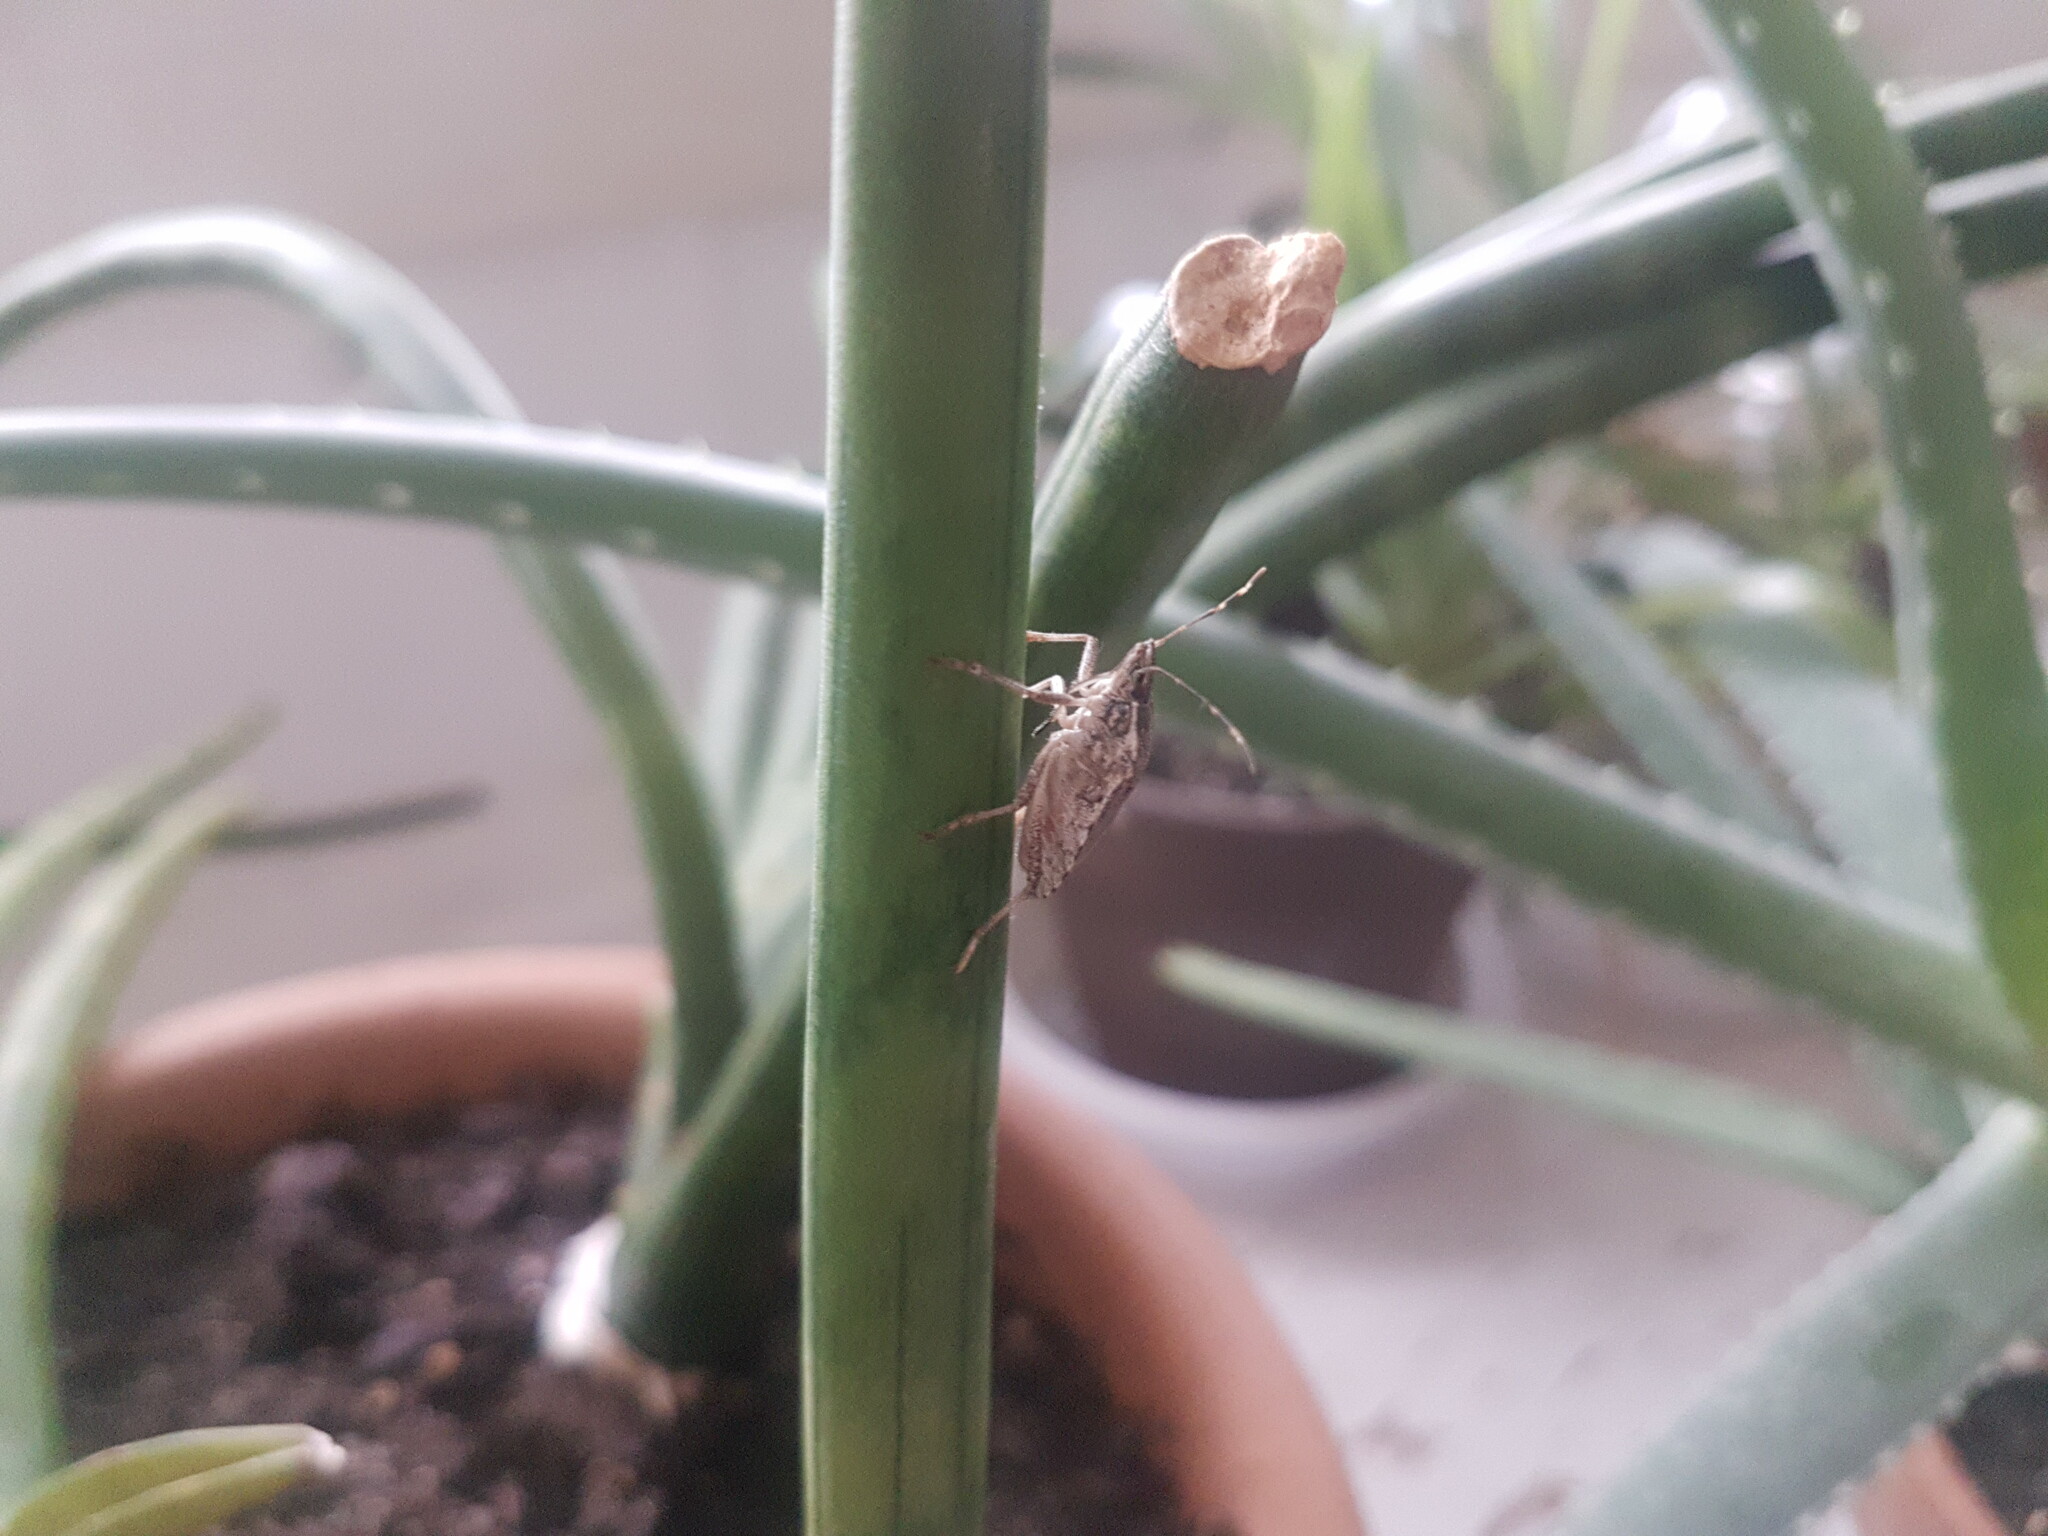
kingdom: Animalia
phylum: Arthropoda
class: Insecta
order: Hemiptera
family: Pentatomidae
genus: Halyomorpha
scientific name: Halyomorpha halys
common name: Brown marmorated stink bug
